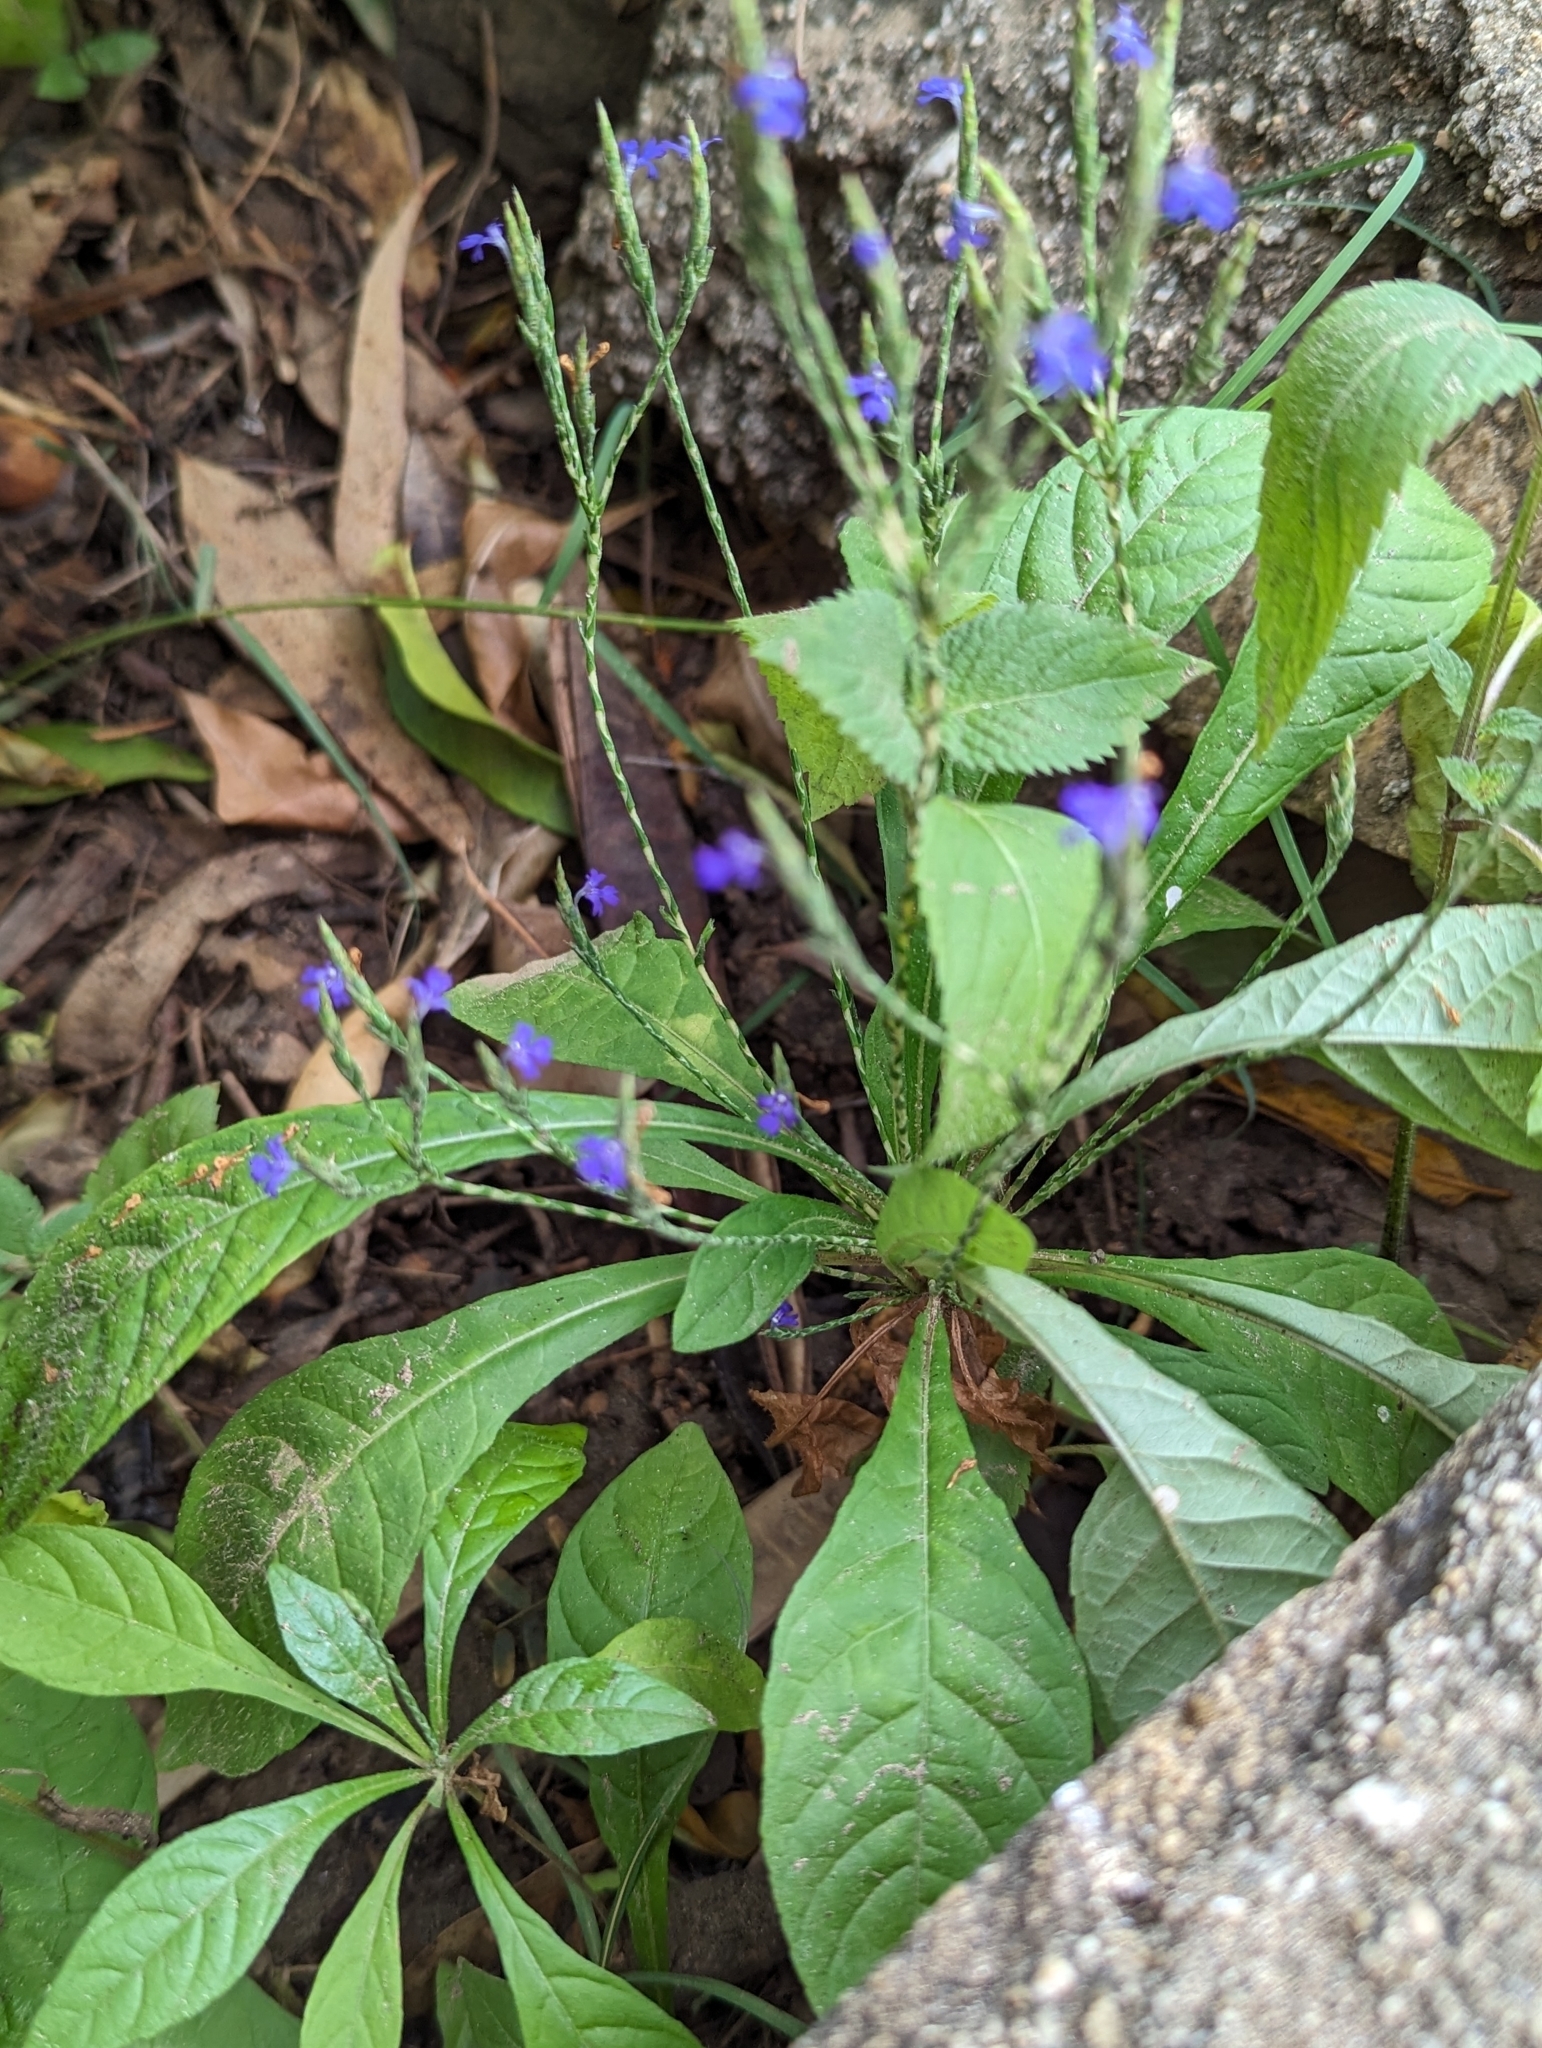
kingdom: Plantae
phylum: Tracheophyta
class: Magnoliopsida
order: Lamiales
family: Acanthaceae
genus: Elytraria
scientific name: Elytraria imbricata
